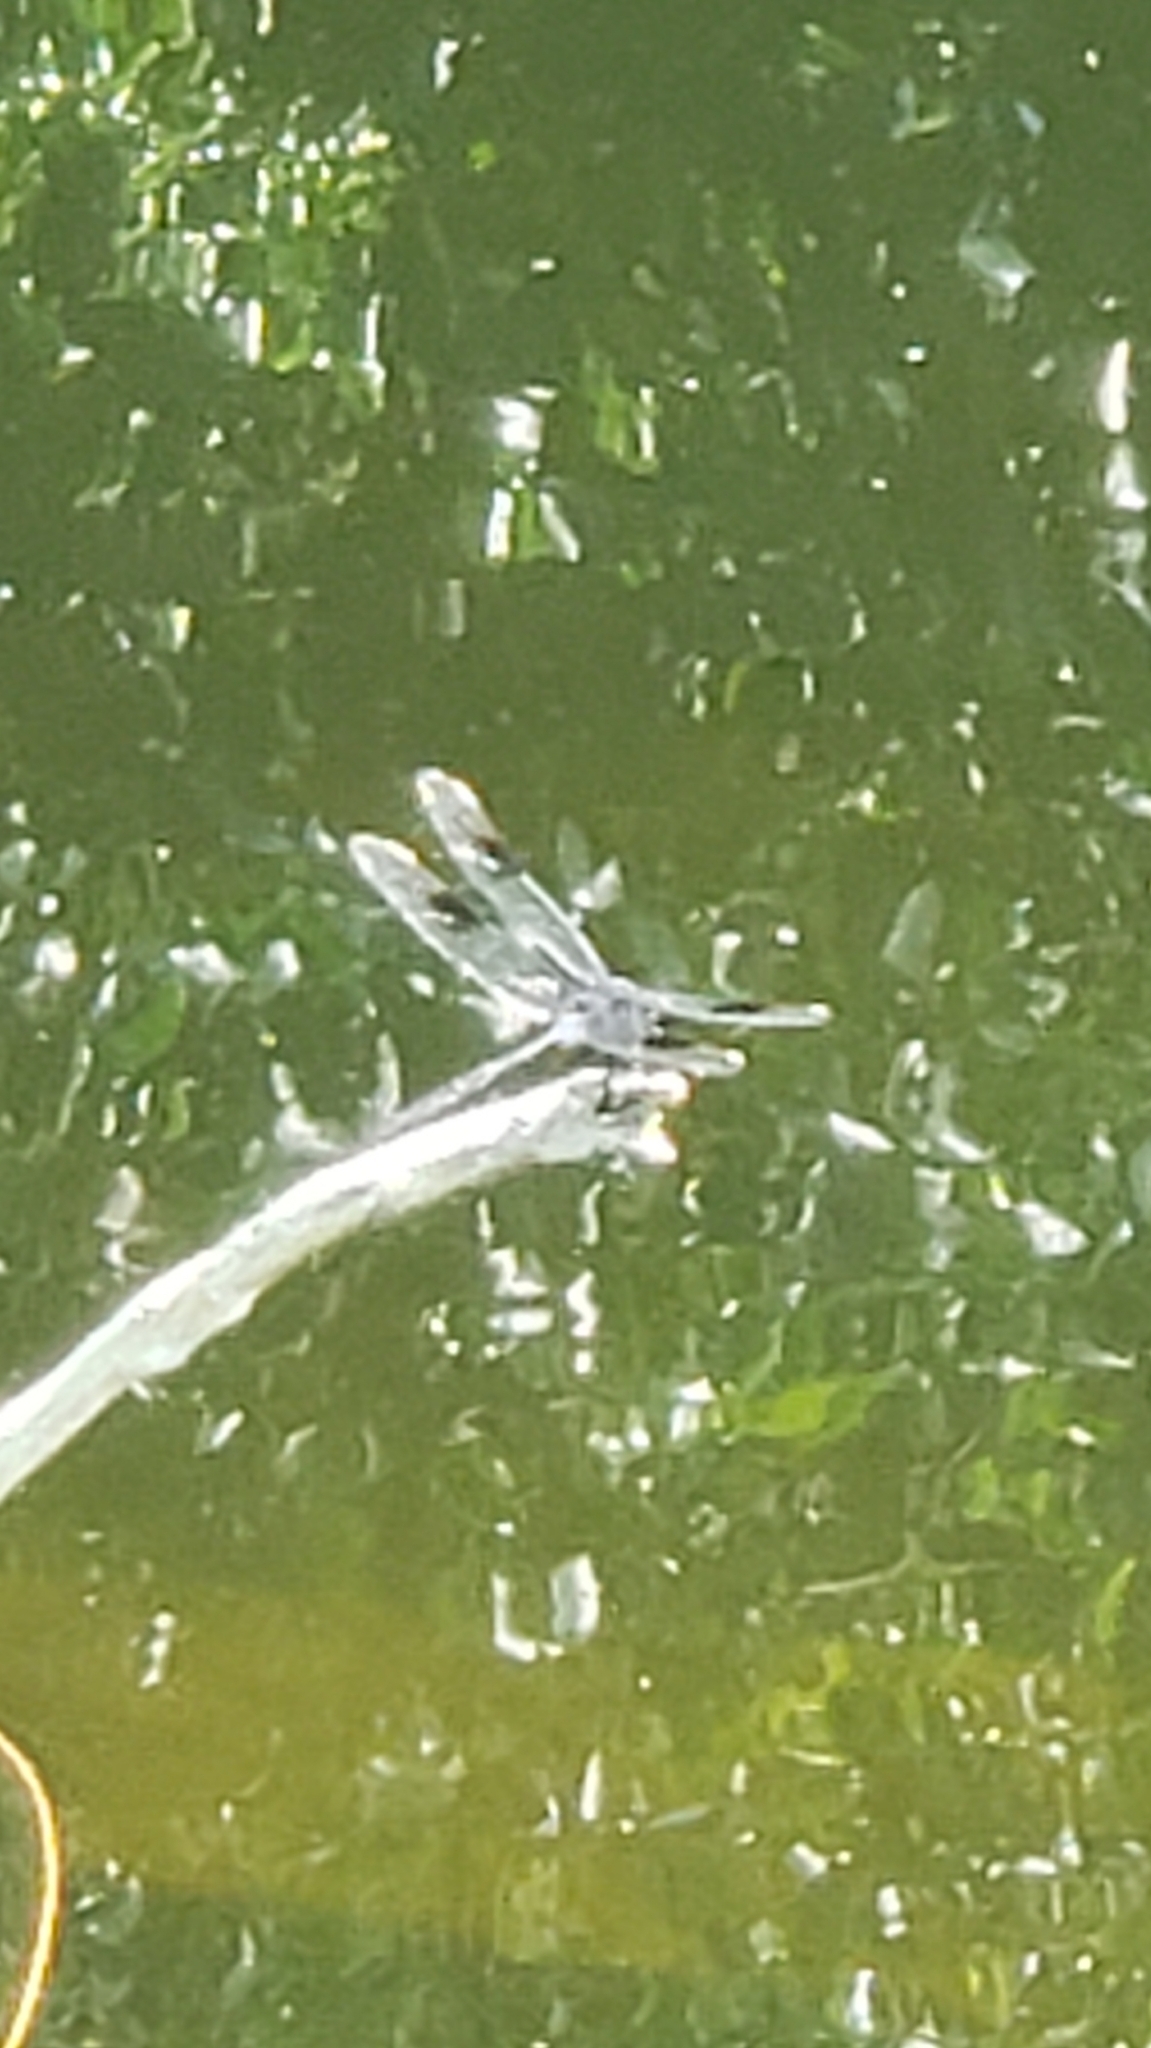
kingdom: Animalia
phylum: Arthropoda
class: Insecta
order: Odonata
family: Libellulidae
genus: Brachymesia
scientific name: Brachymesia gravida
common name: Four-spotted pennant
